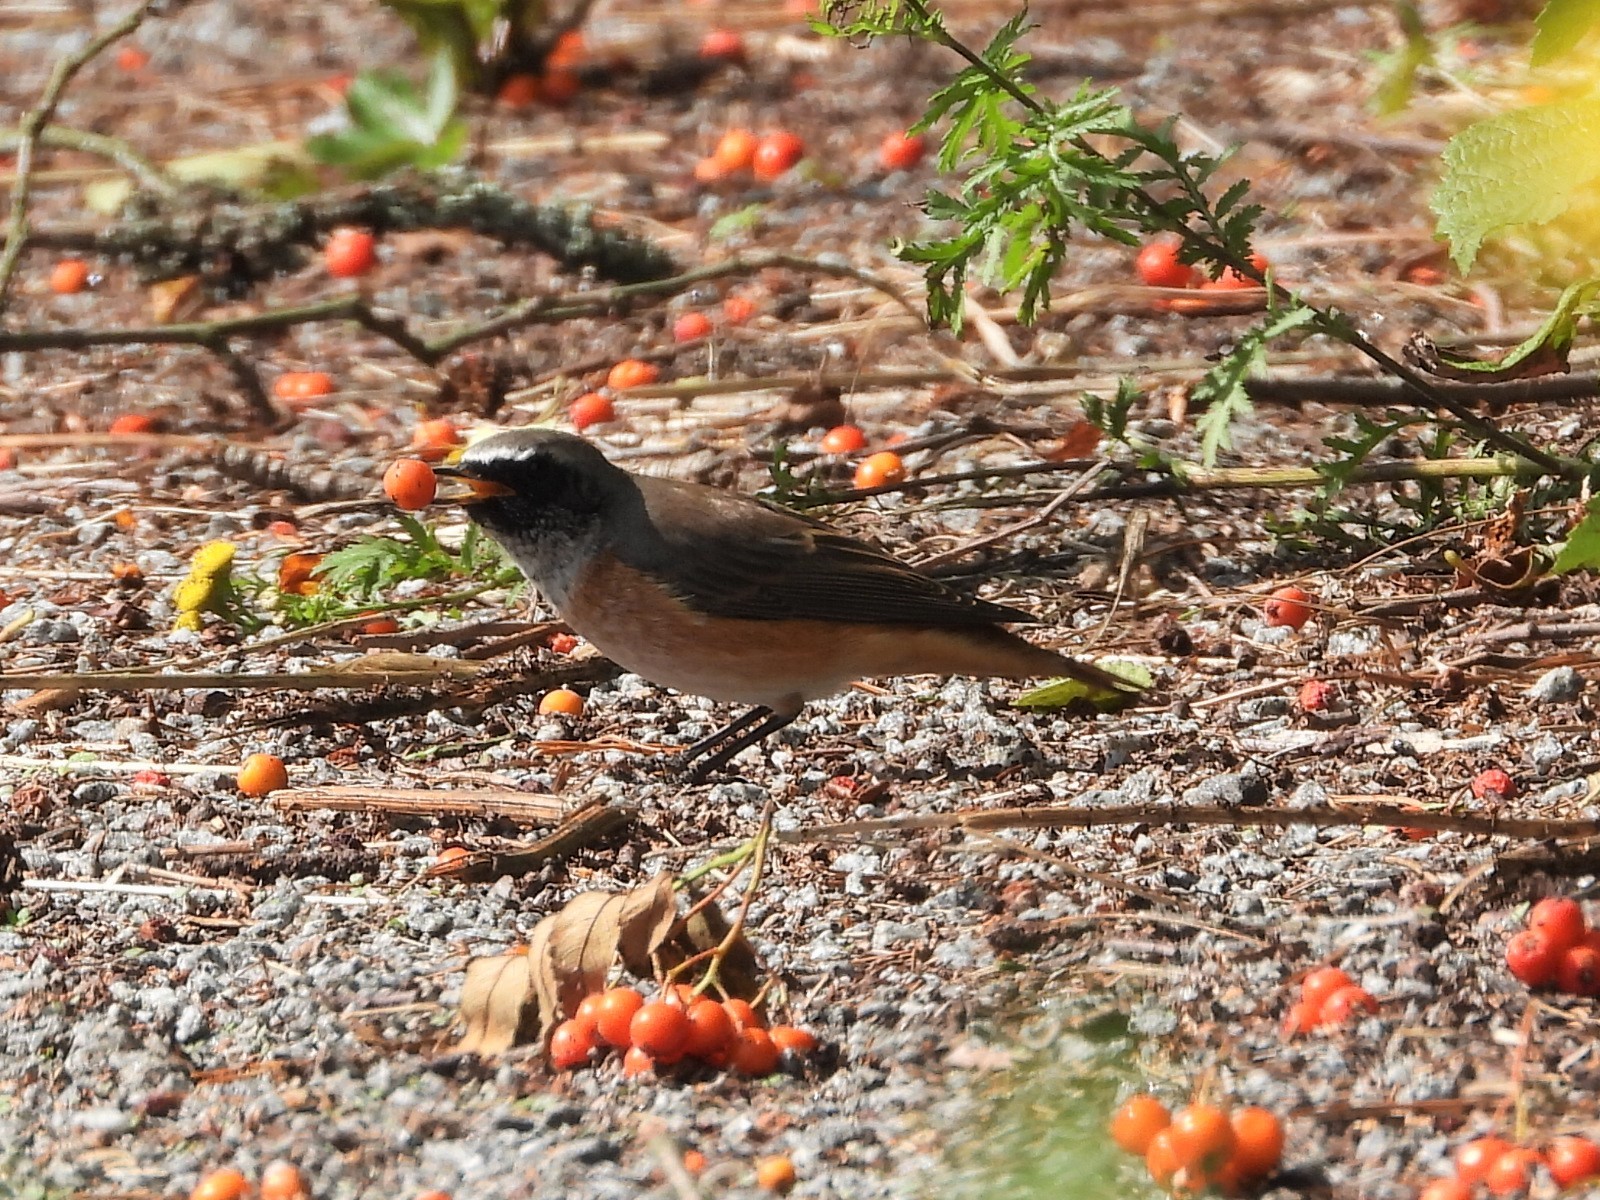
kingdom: Animalia
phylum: Chordata
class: Aves
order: Passeriformes
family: Muscicapidae
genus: Phoenicurus
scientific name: Phoenicurus phoenicurus
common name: Common redstart
